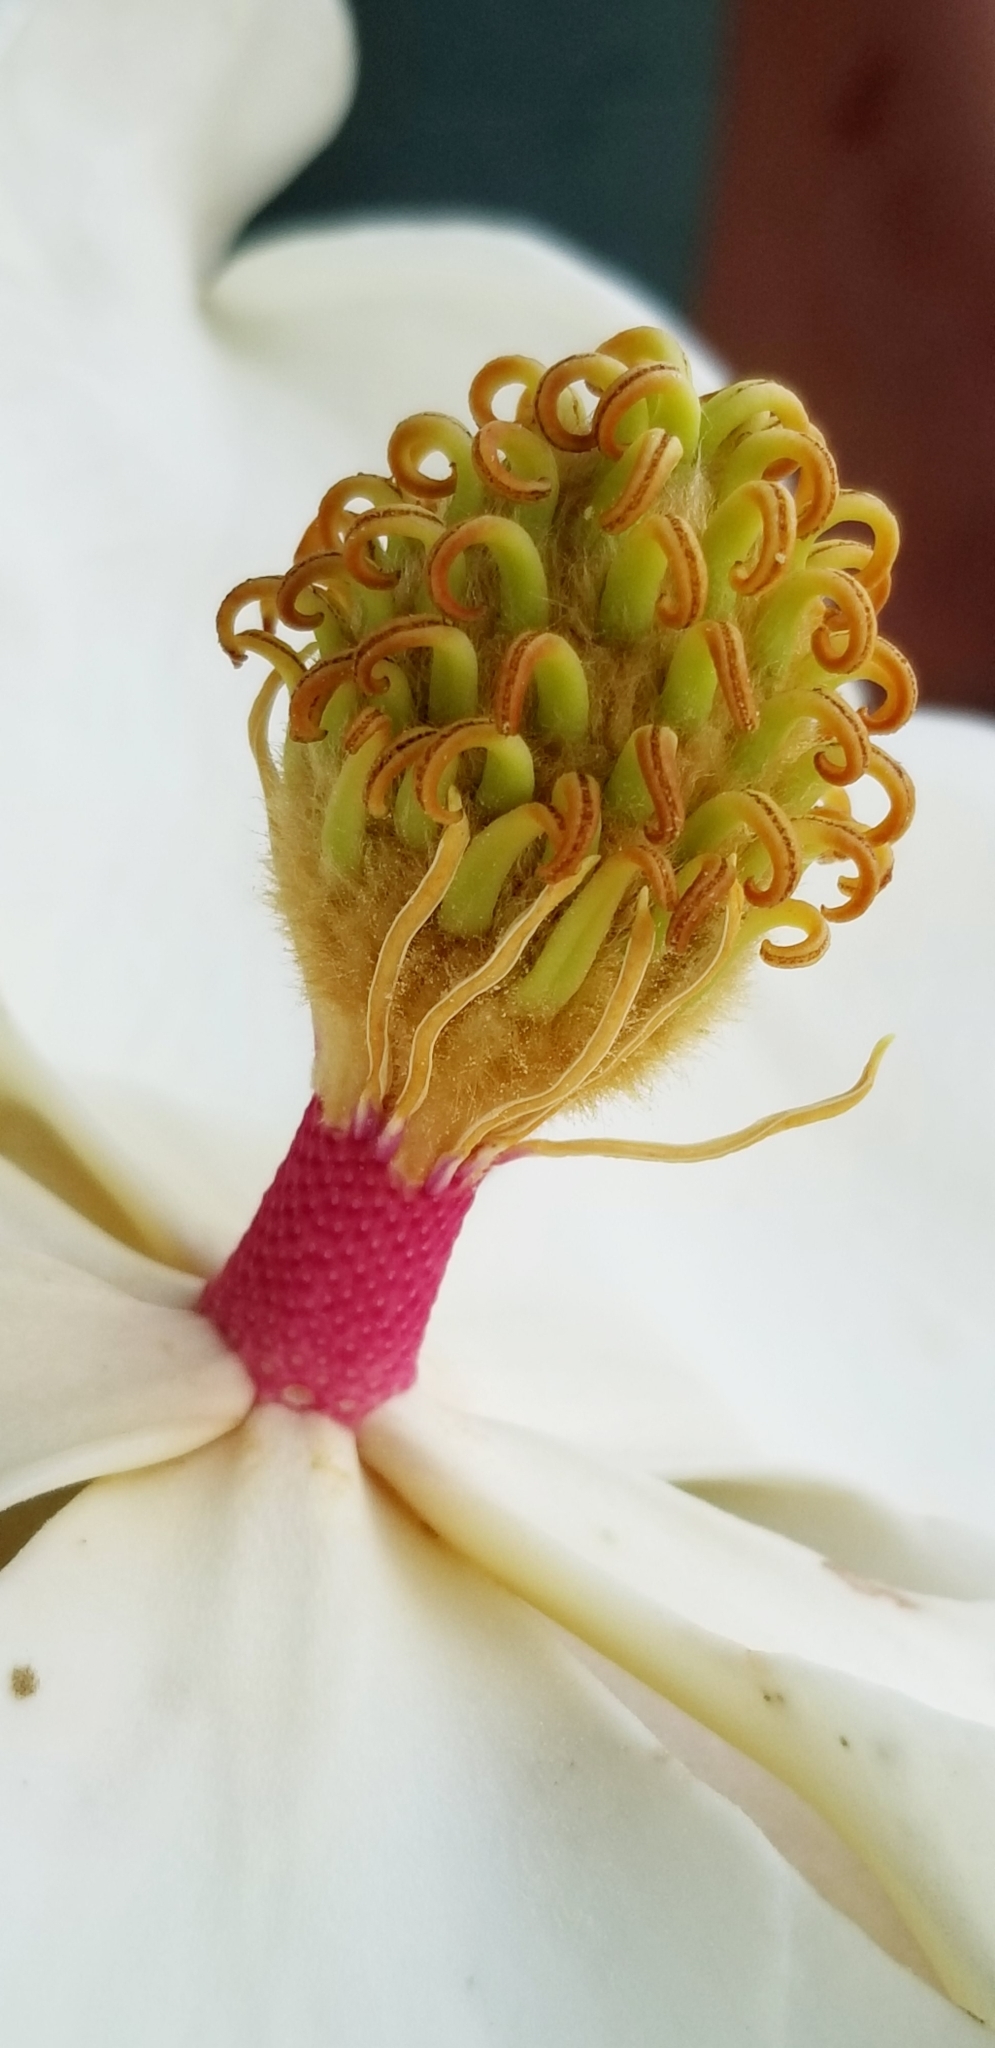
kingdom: Plantae
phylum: Tracheophyta
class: Magnoliopsida
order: Magnoliales
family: Magnoliaceae
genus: Magnolia
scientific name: Magnolia grandiflora
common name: Southern magnolia
